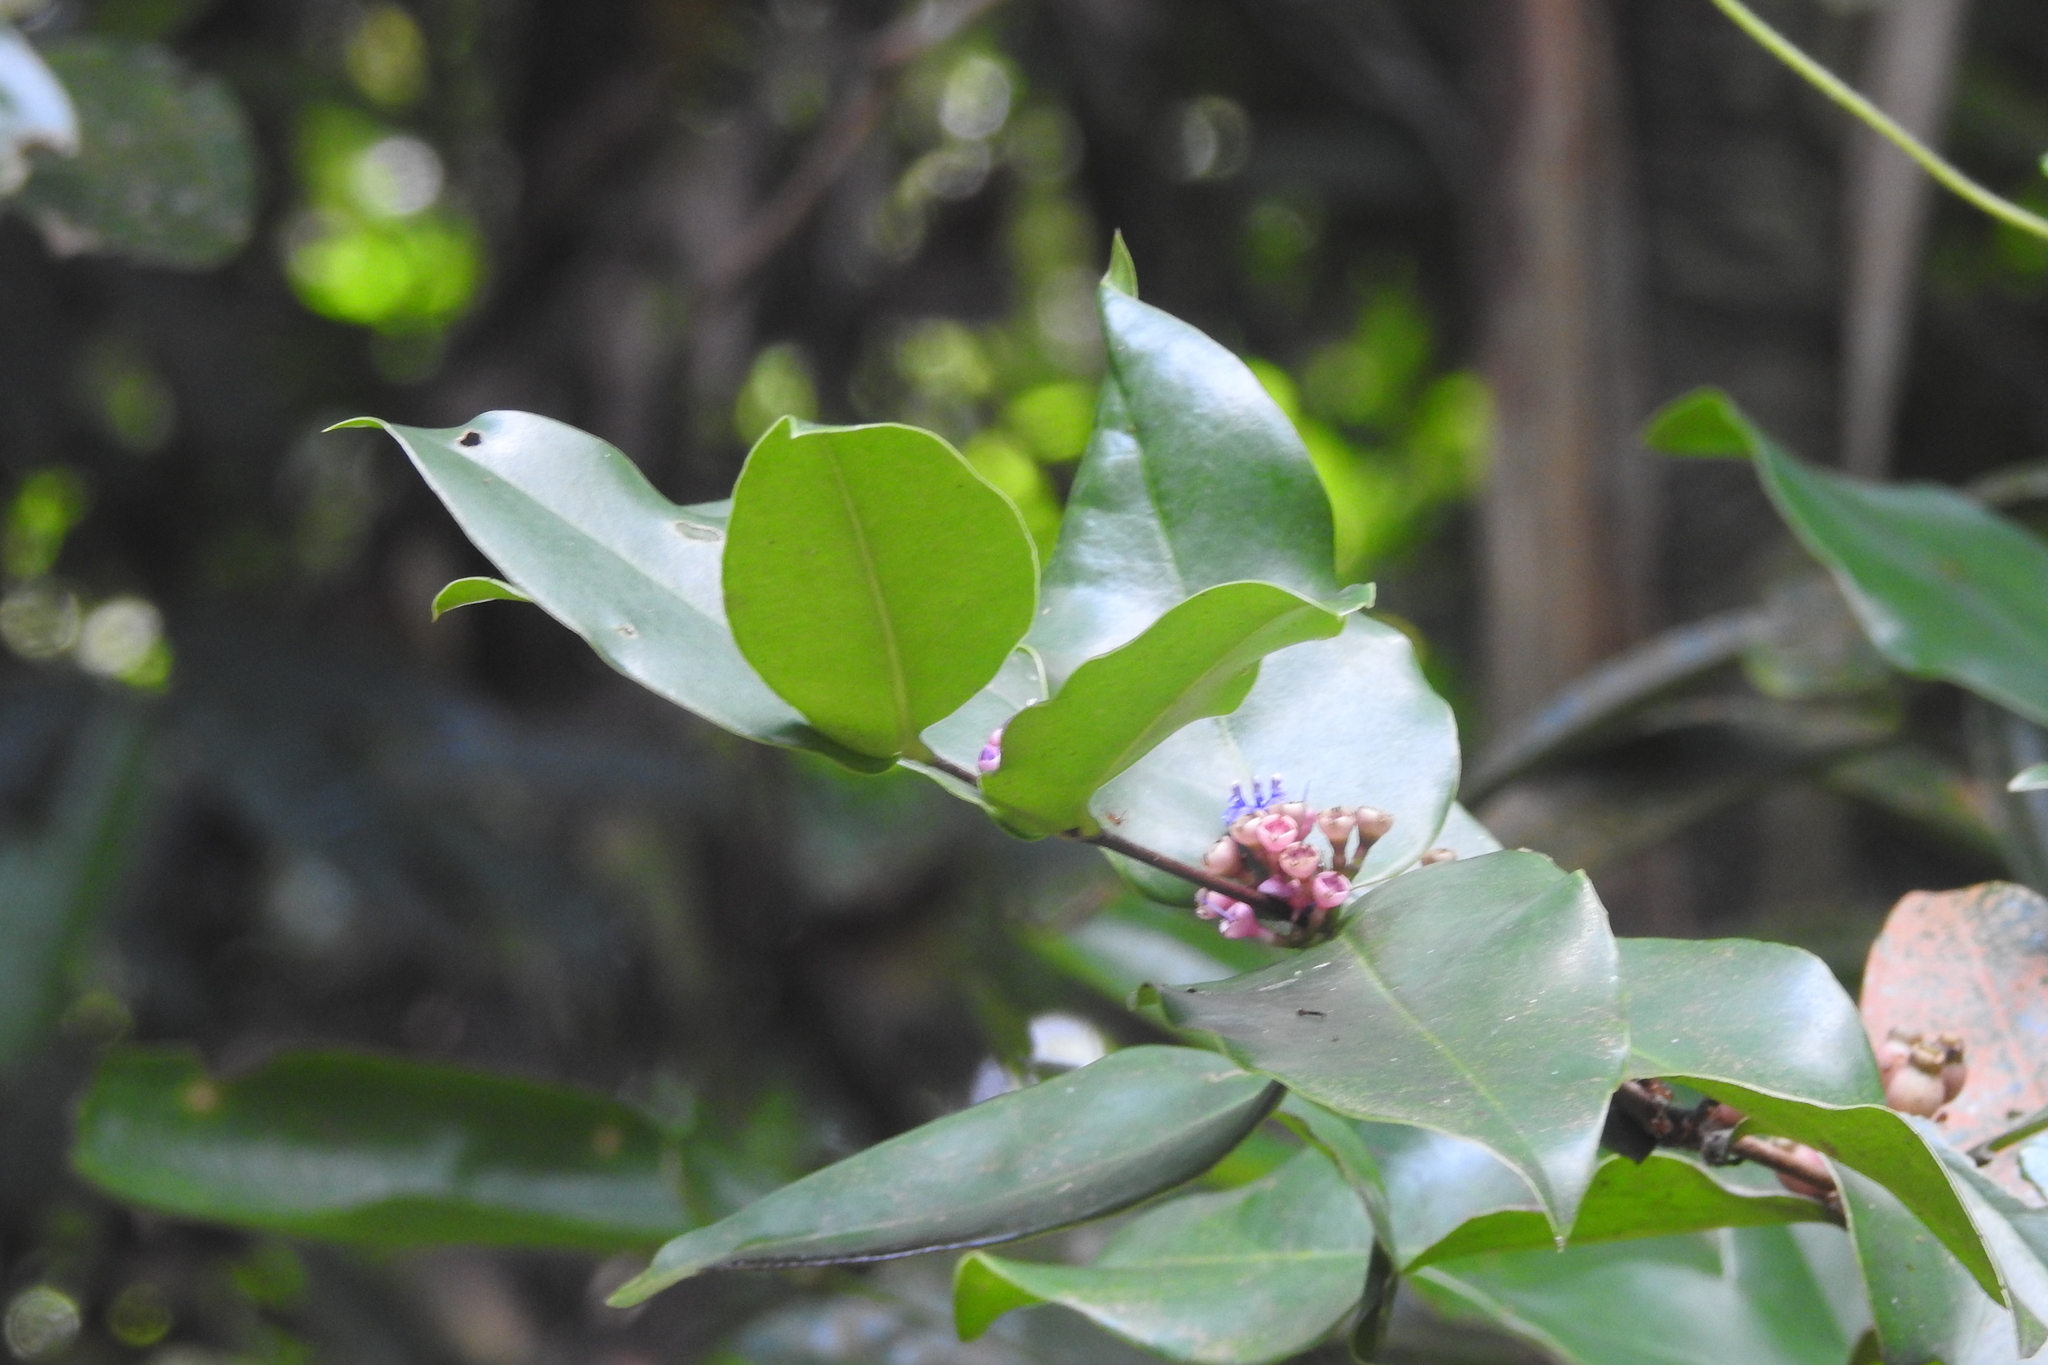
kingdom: Plantae
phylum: Tracheophyta
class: Magnoliopsida
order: Myrtales
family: Melastomataceae
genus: Memecylon
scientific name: Memecylon caeruleum
